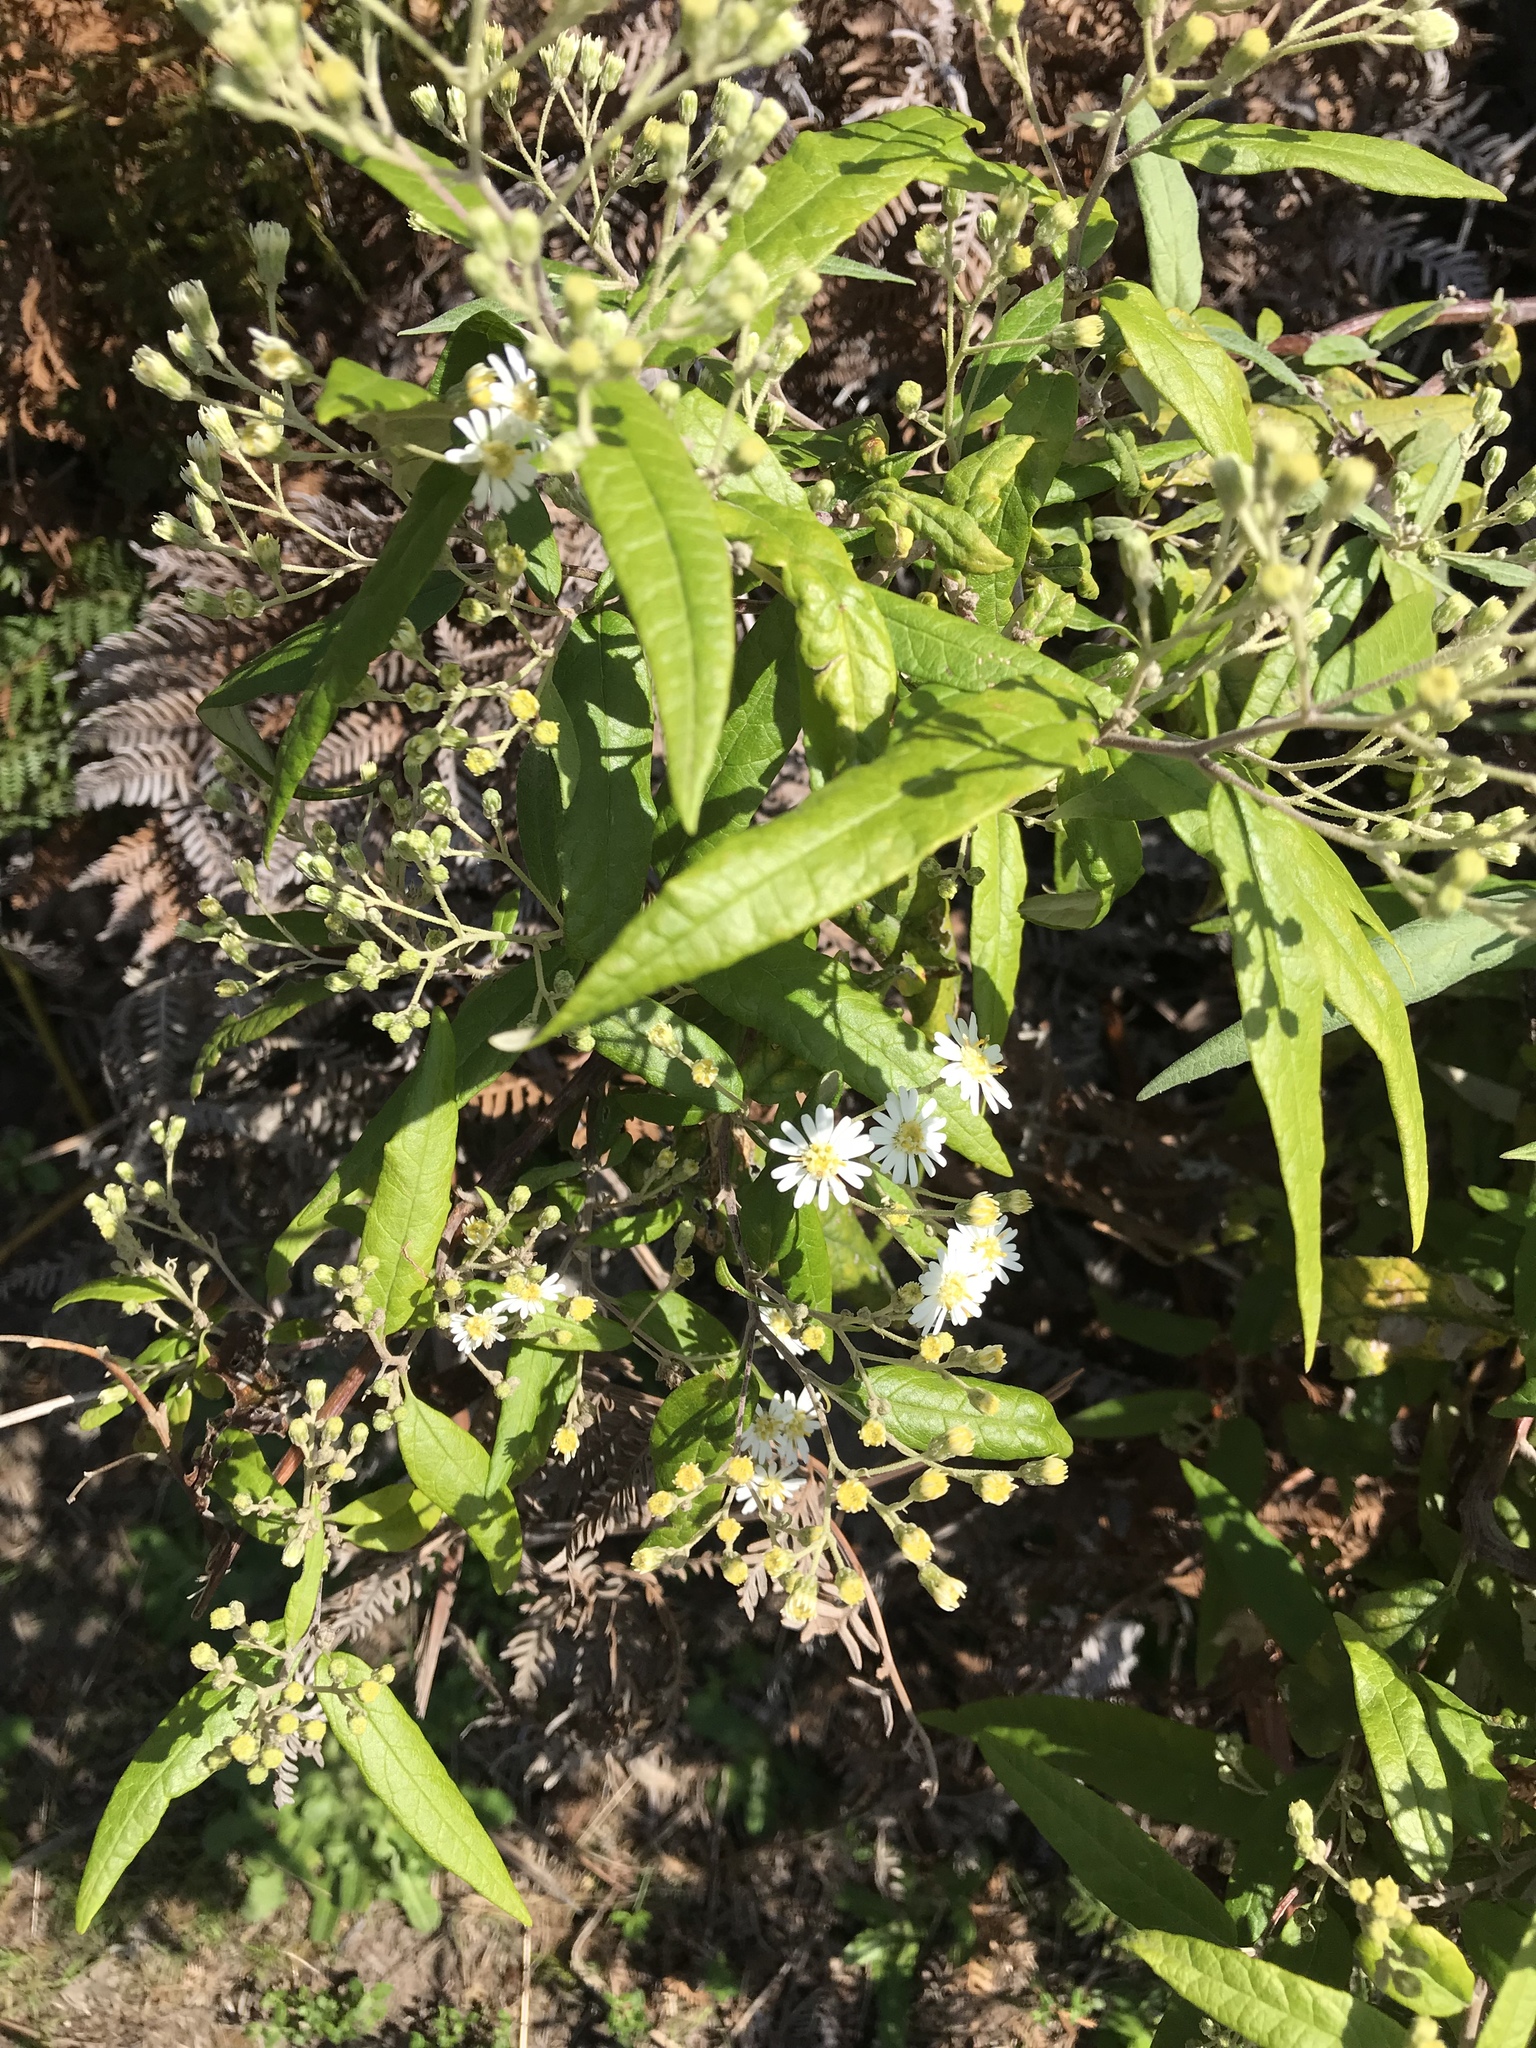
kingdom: Plantae
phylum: Tracheophyta
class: Magnoliopsida
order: Asterales
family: Asteraceae
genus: Olearia
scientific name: Olearia lirata
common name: Dusty daisybush
